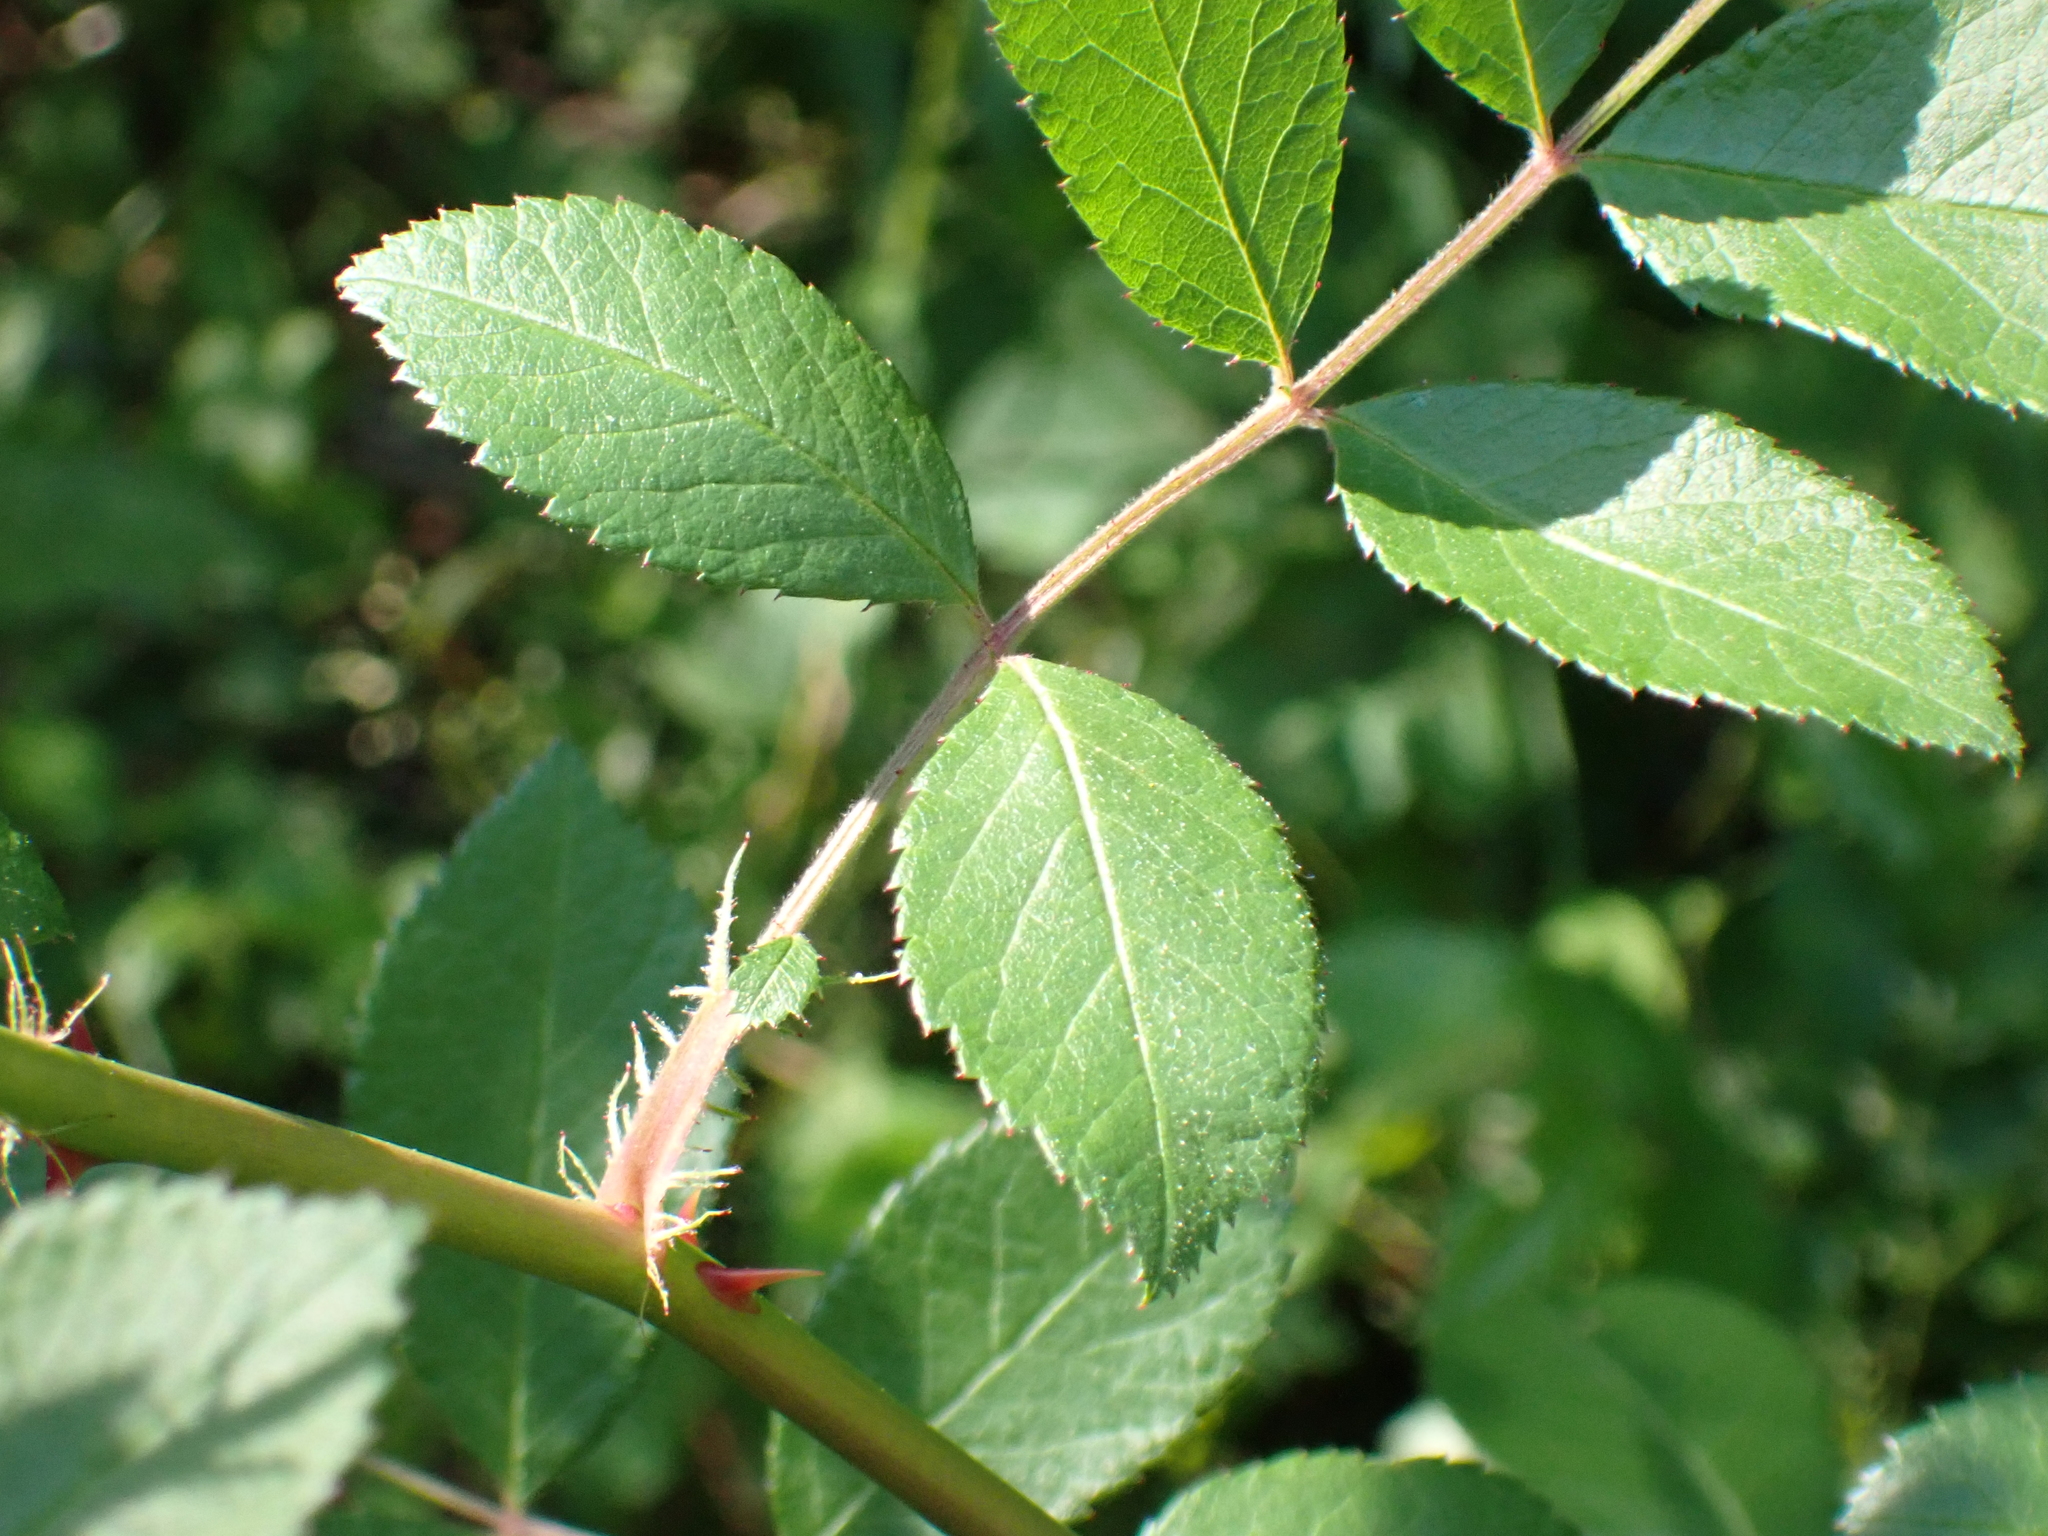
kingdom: Plantae
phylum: Tracheophyta
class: Magnoliopsida
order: Rosales
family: Rosaceae
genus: Rosa
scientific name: Rosa multiflora
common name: Multiflora rose
